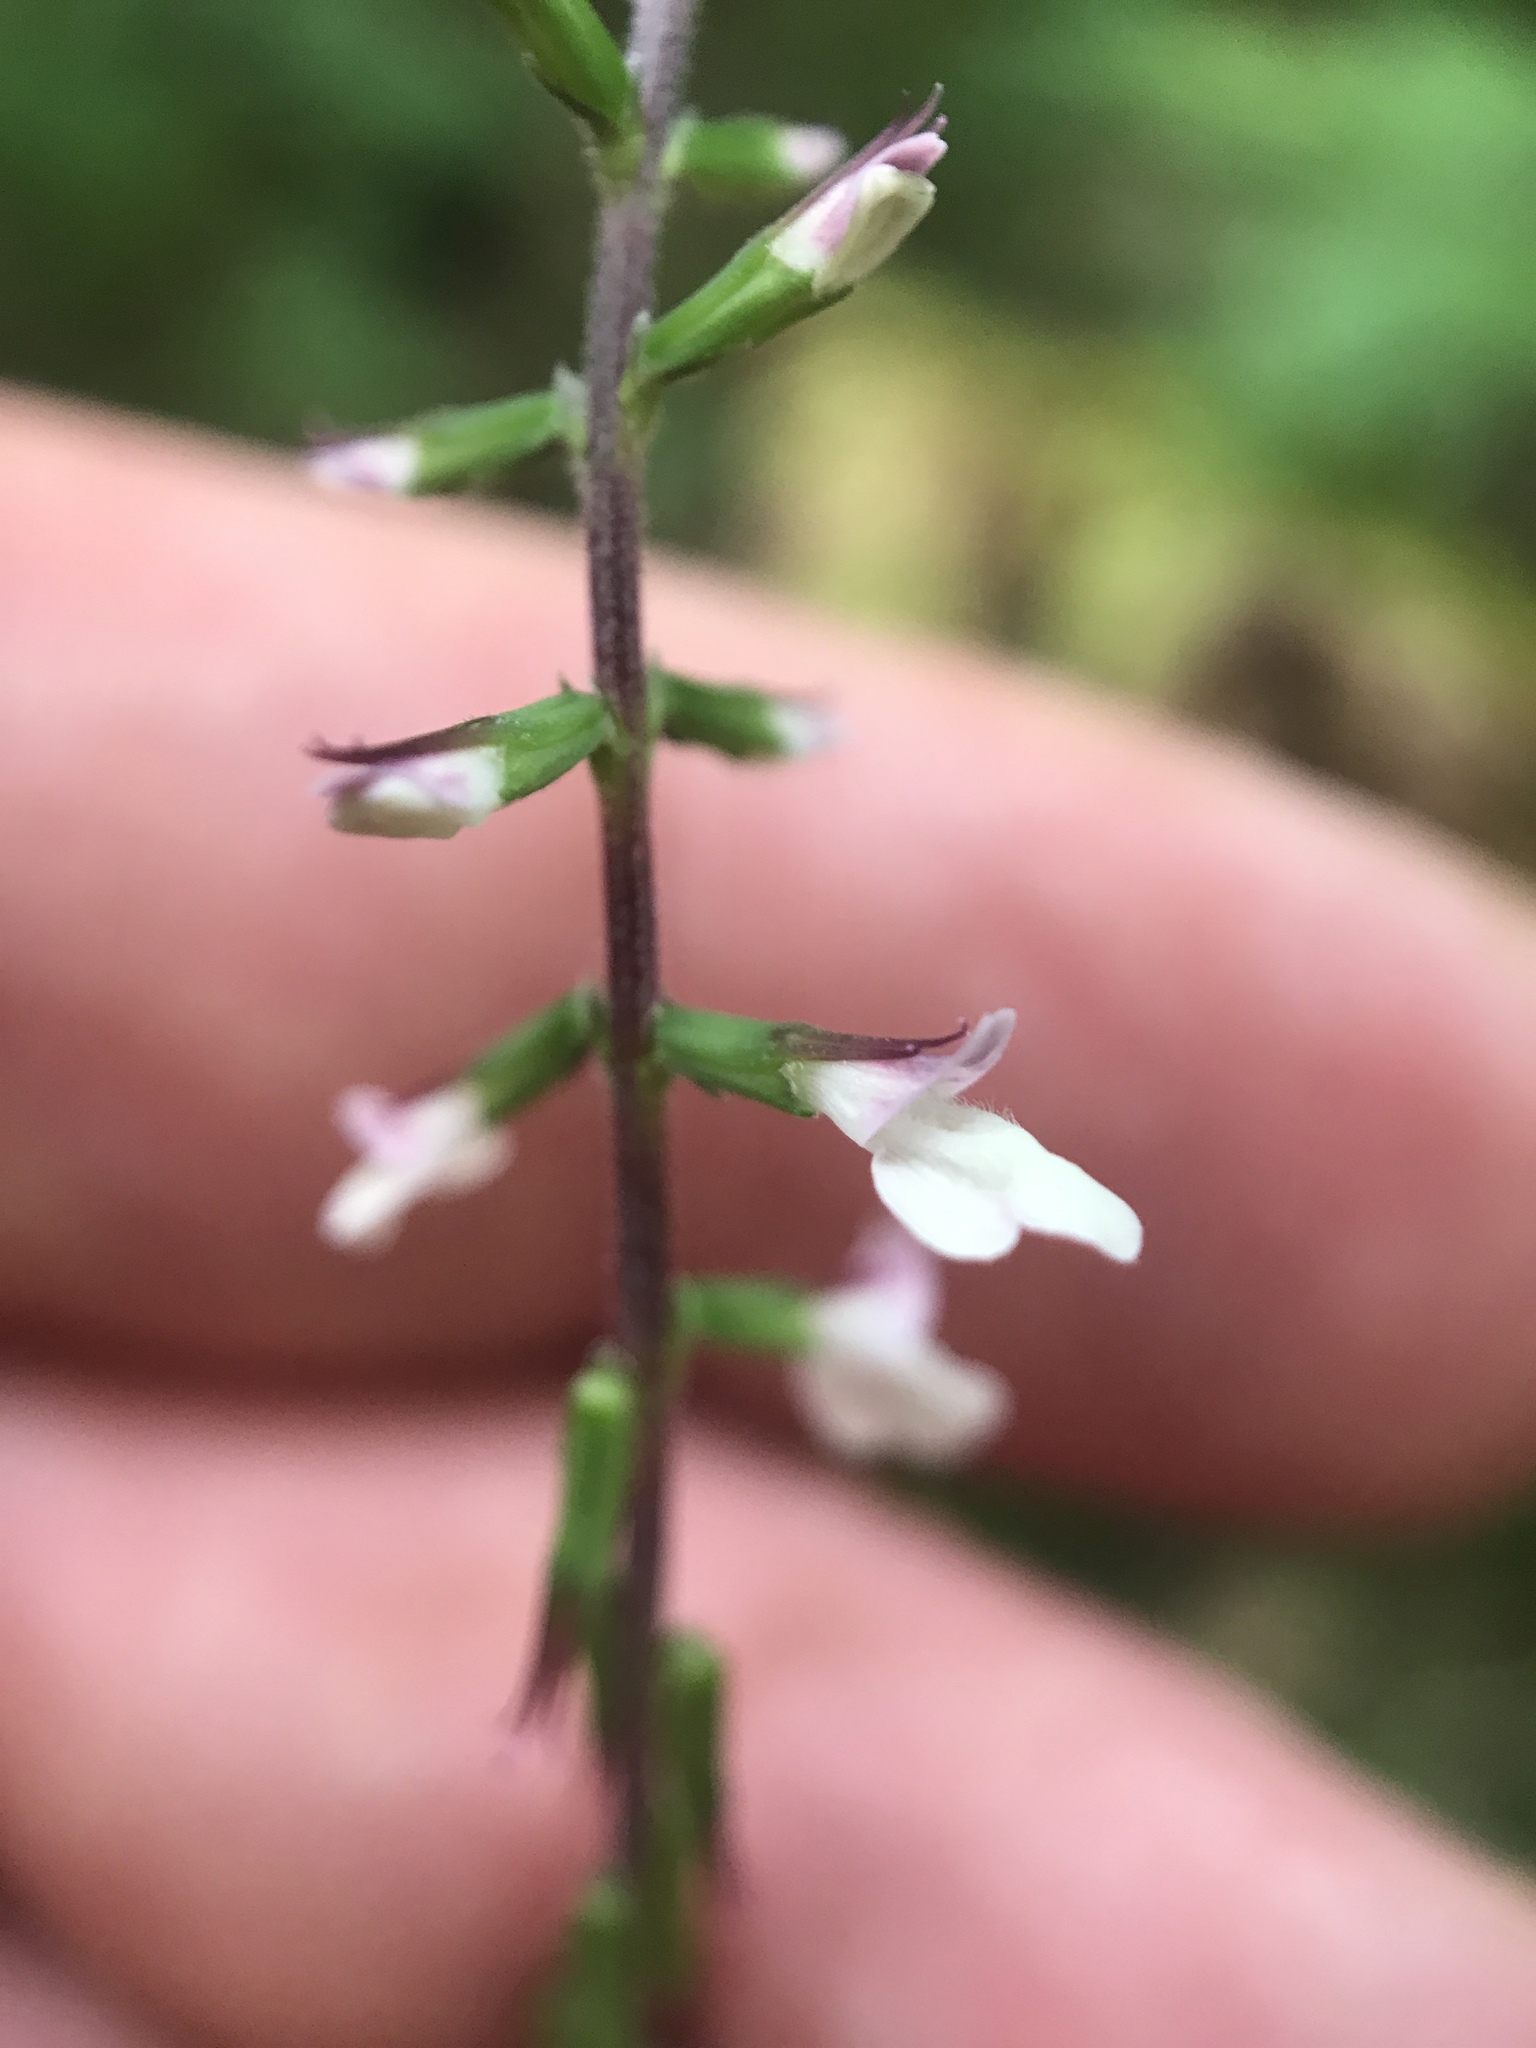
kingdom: Plantae
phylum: Tracheophyta
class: Magnoliopsida
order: Lamiales
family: Phrymaceae
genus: Phryma
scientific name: Phryma leptostachya
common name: American lopseed
